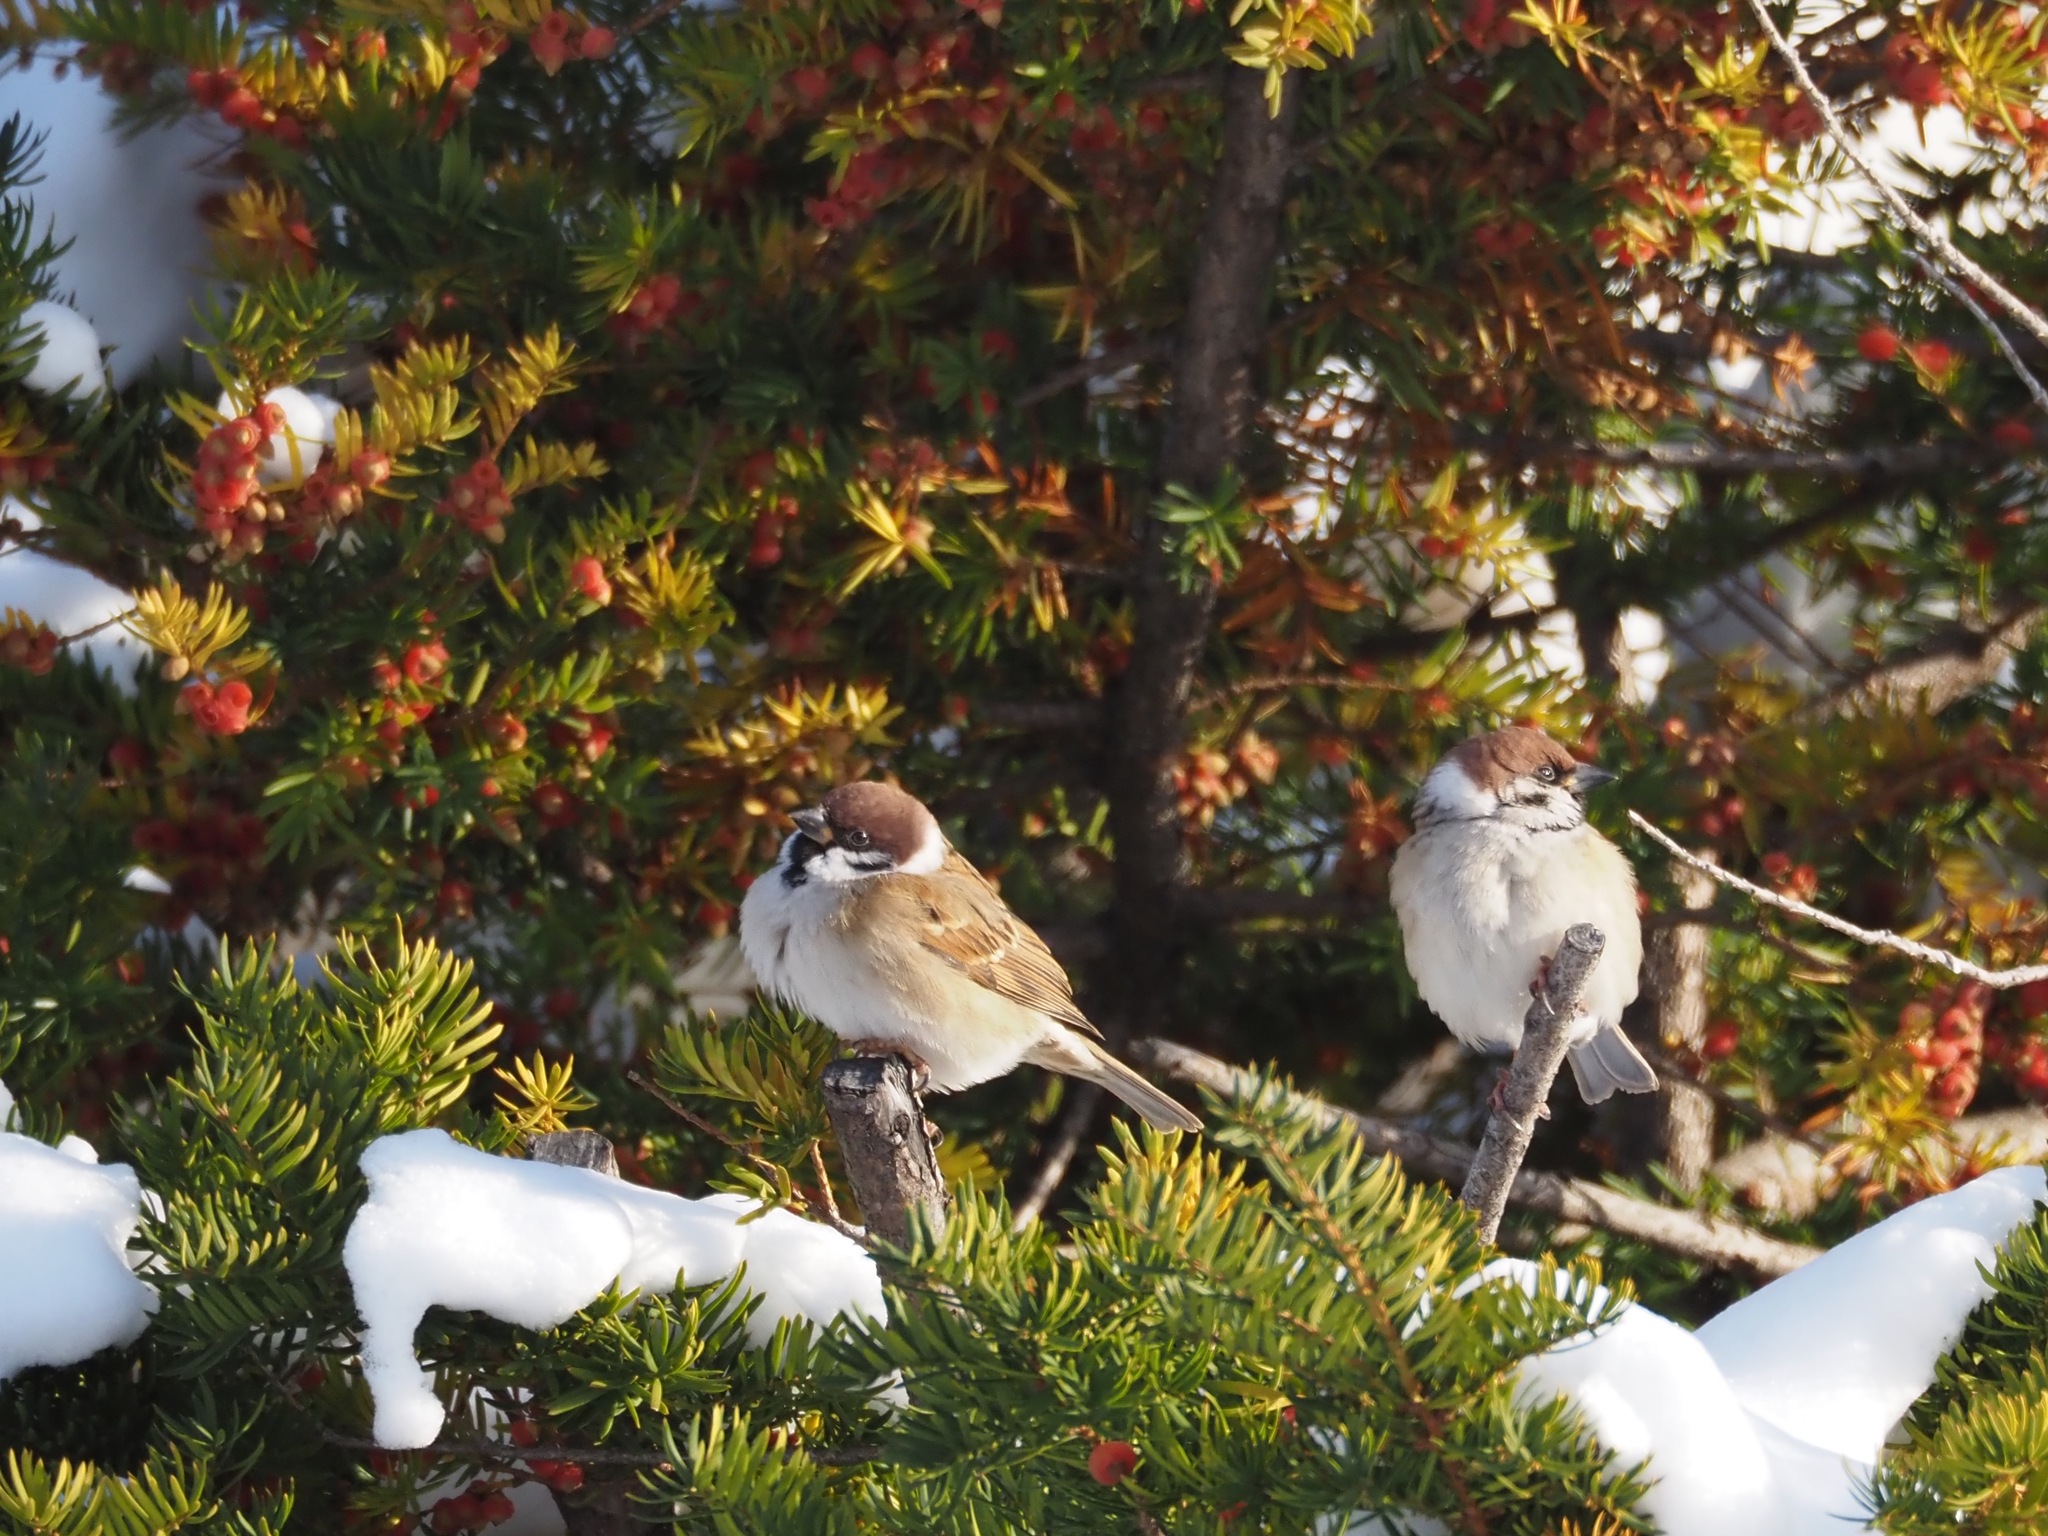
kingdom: Animalia
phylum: Chordata
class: Aves
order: Passeriformes
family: Passeridae
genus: Passer
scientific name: Passer montanus
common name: Eurasian tree sparrow
